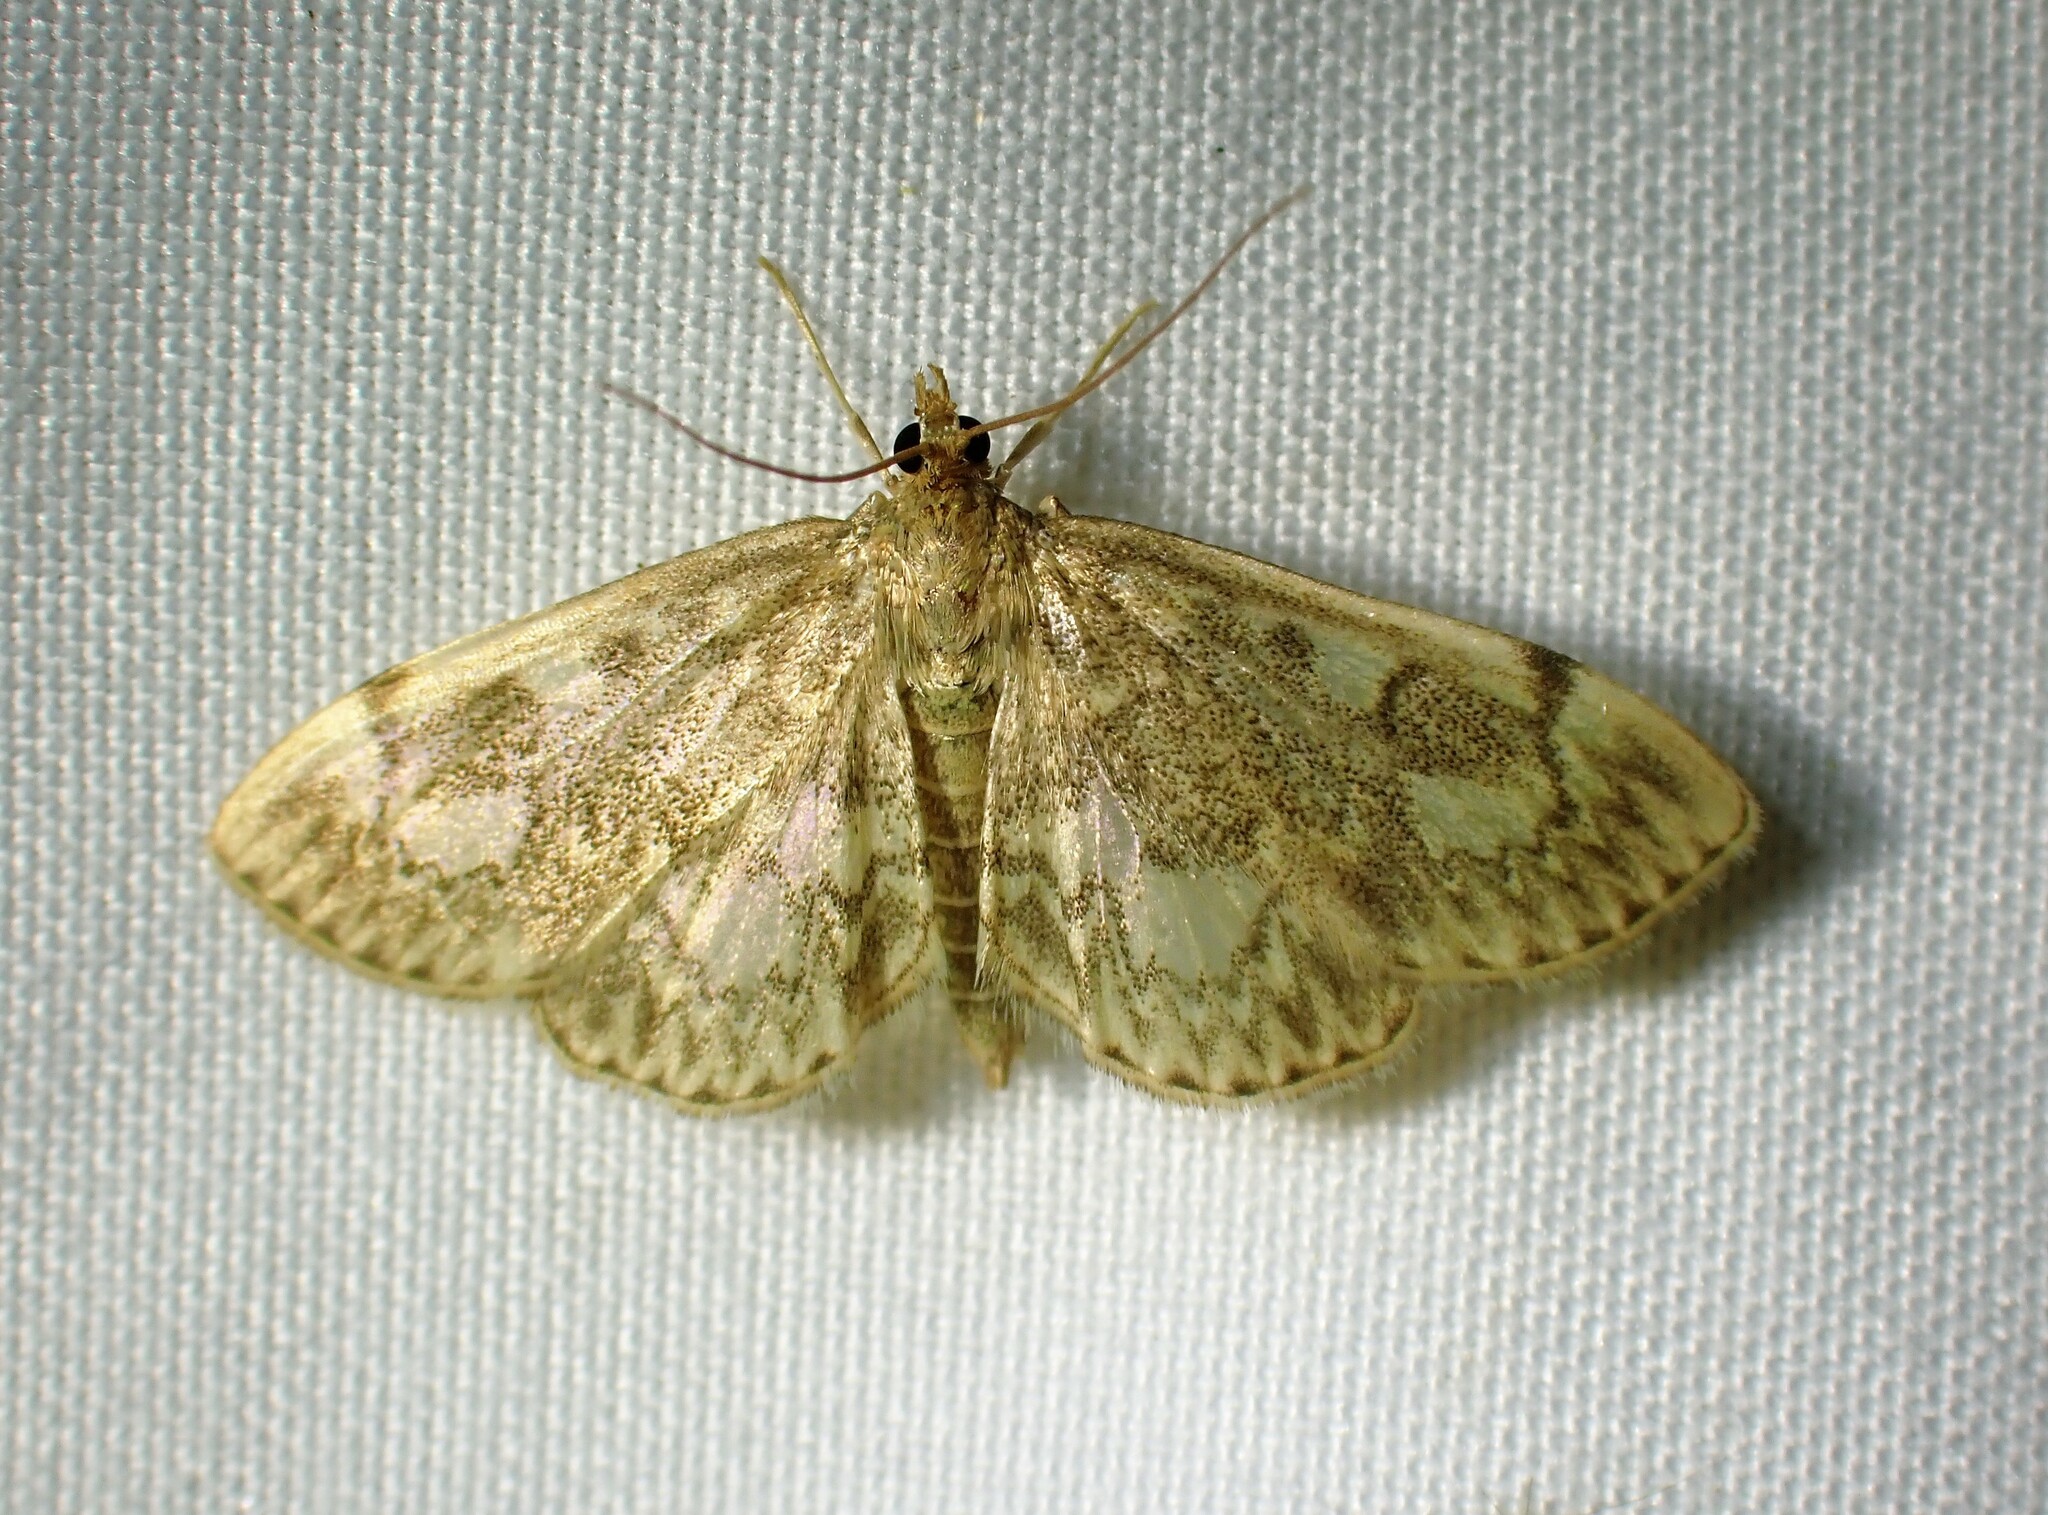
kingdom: Animalia
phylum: Arthropoda
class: Insecta
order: Lepidoptera
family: Crambidae
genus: Anania
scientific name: Anania
